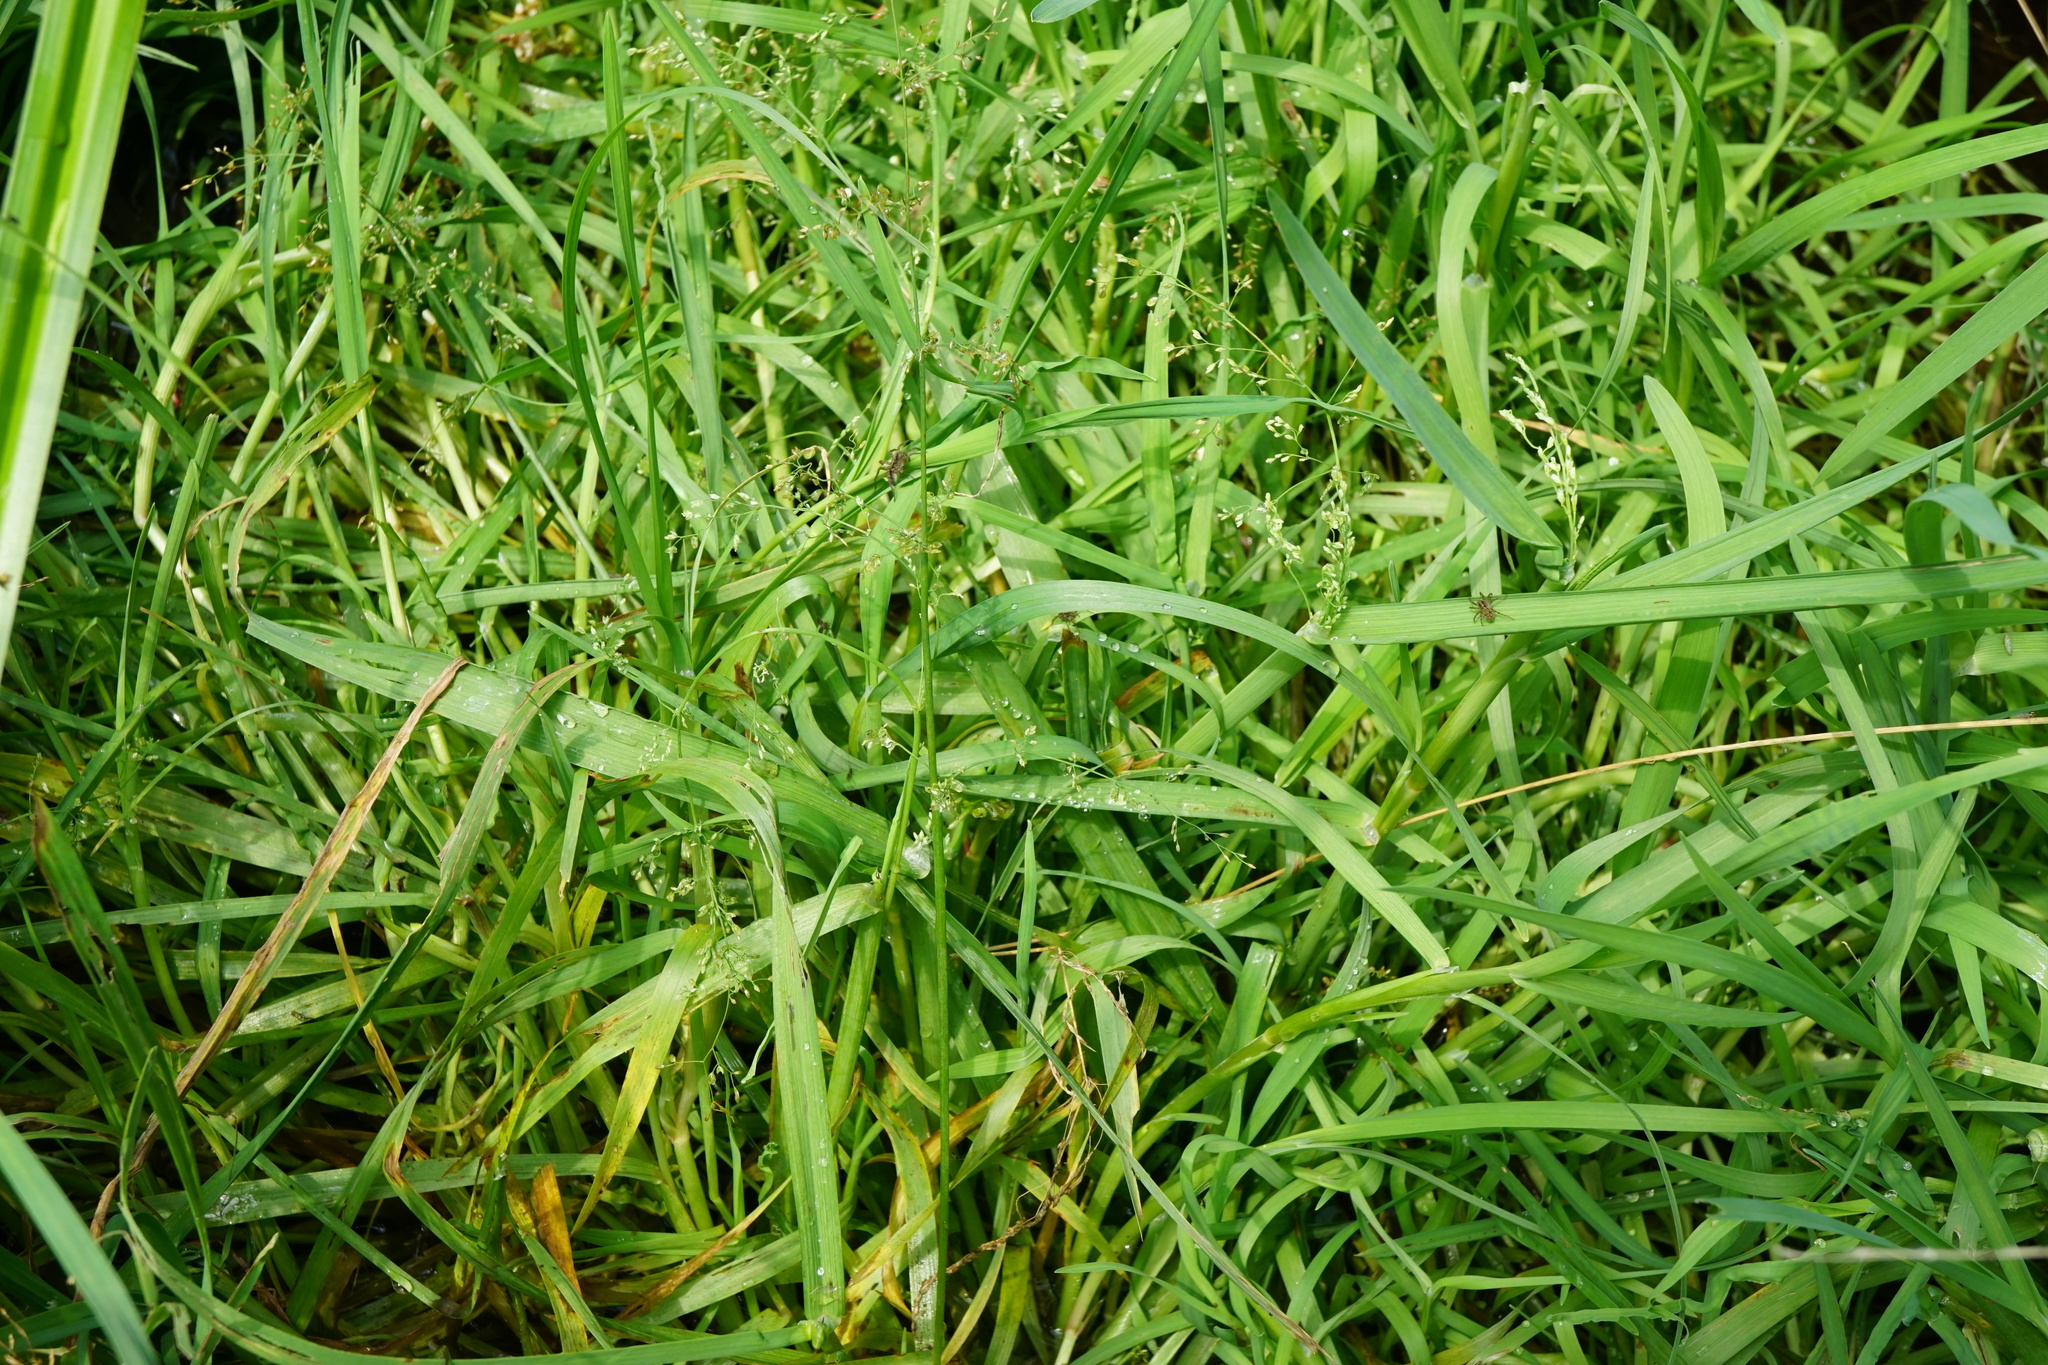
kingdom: Plantae
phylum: Tracheophyta
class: Liliopsida
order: Poales
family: Poaceae
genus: Catabrosa
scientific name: Catabrosa aquatica
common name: Whorl-grass
